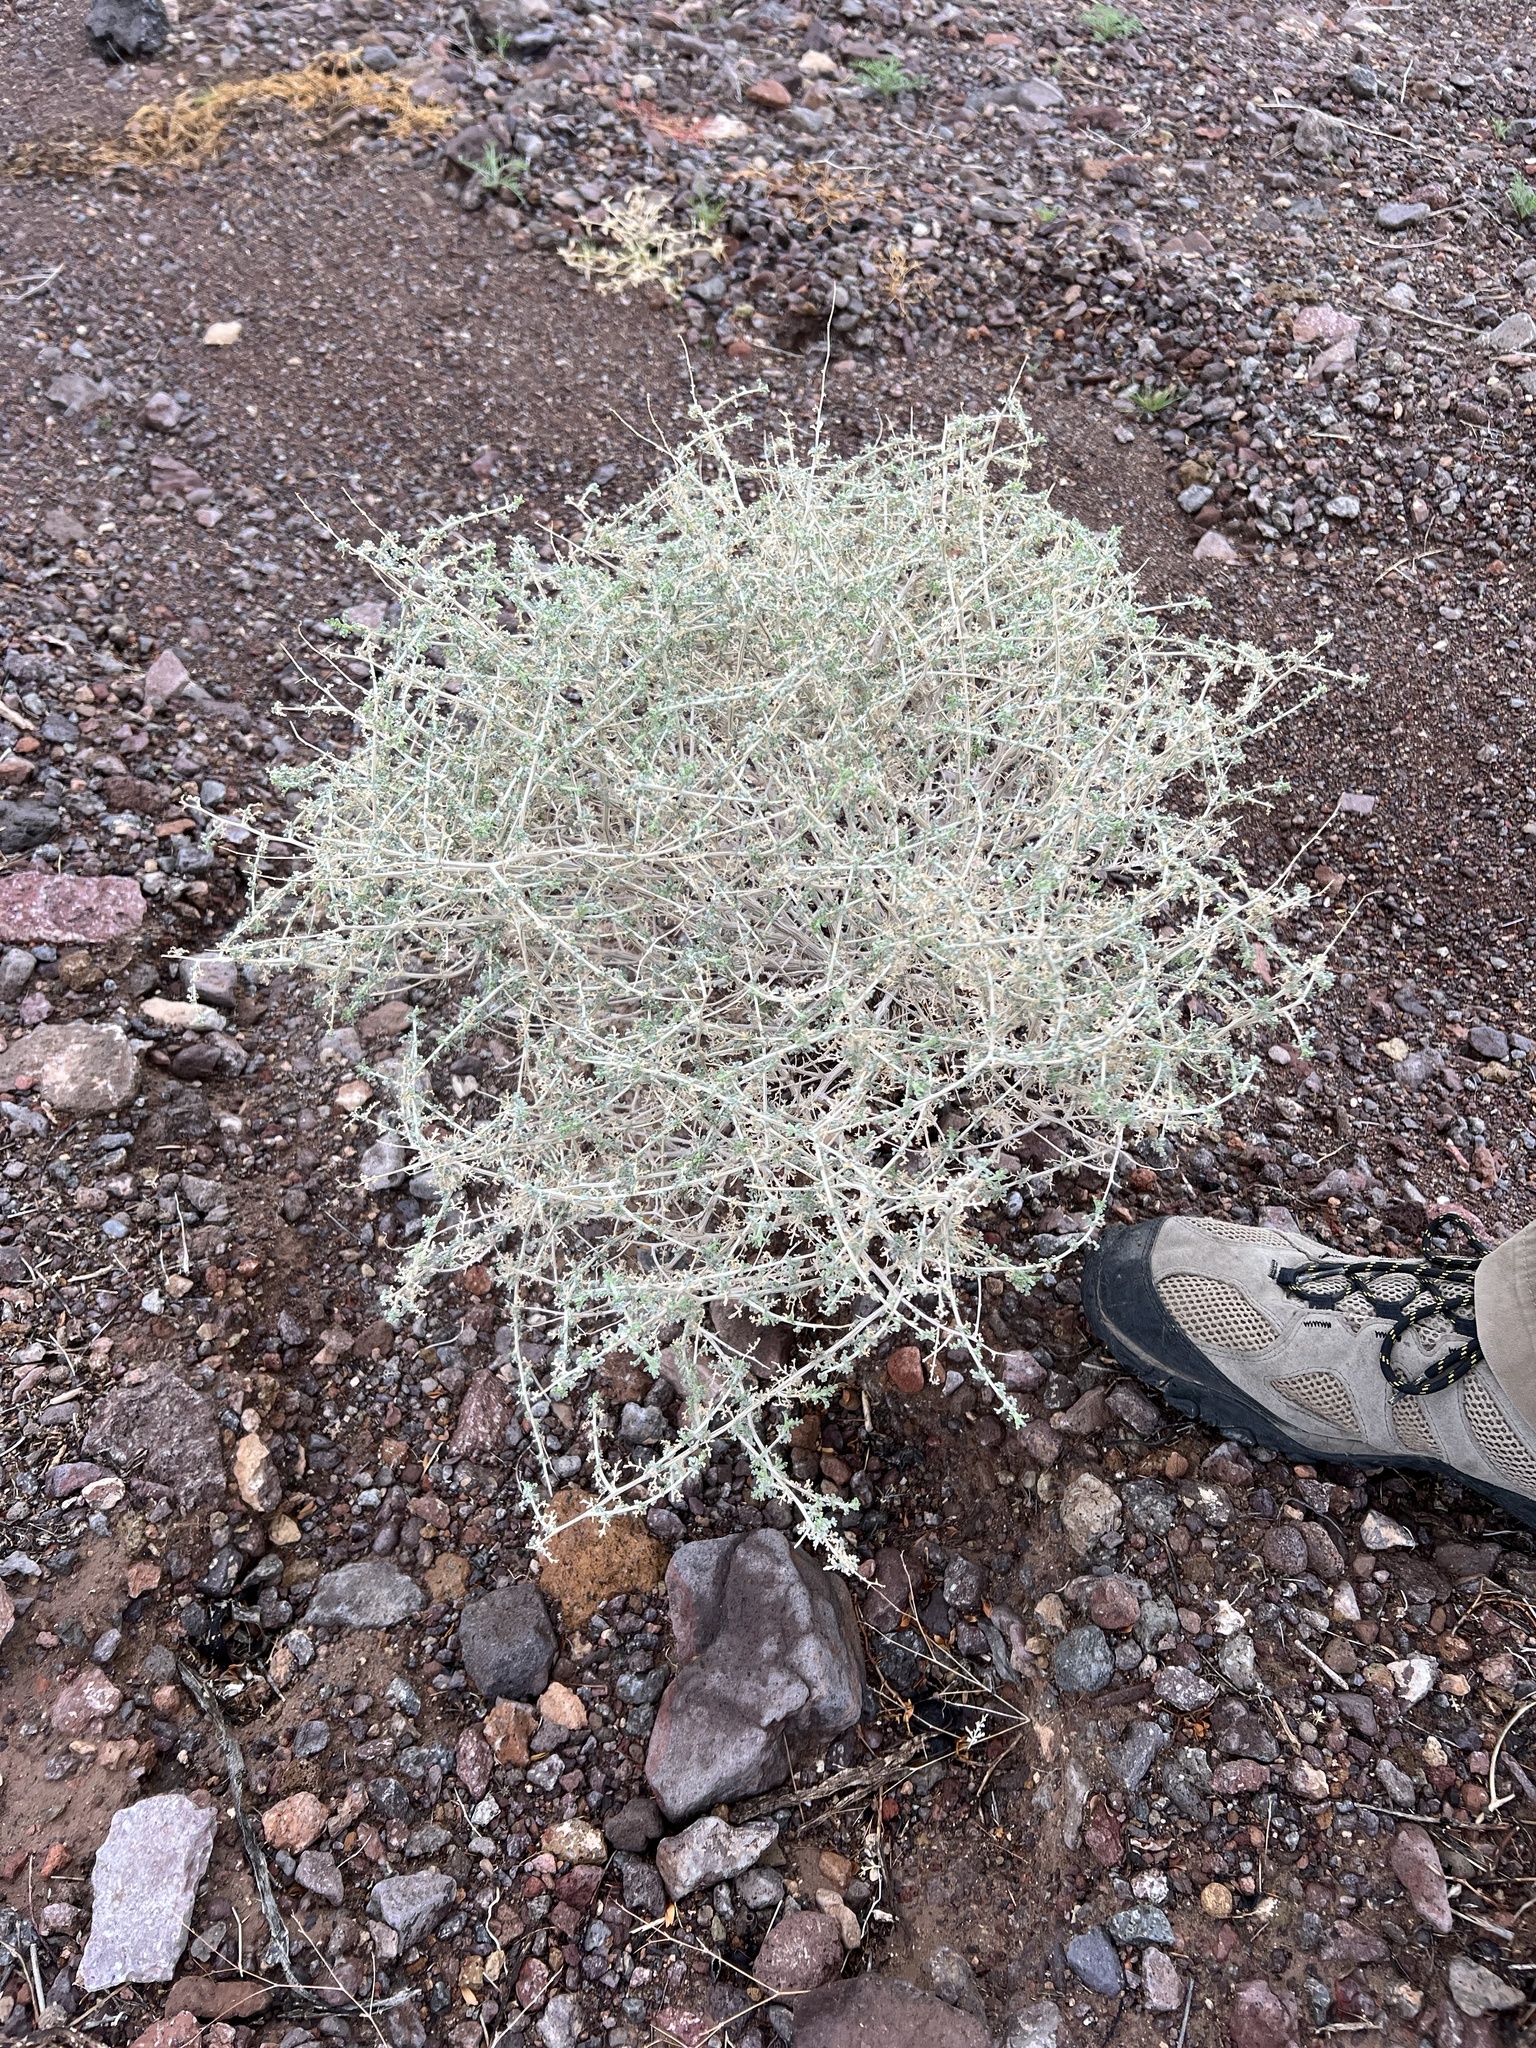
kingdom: Plantae
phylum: Tracheophyta
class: Magnoliopsida
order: Asterales
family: Asteraceae
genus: Ambrosia
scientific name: Ambrosia dumosa
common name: Bur-sage
